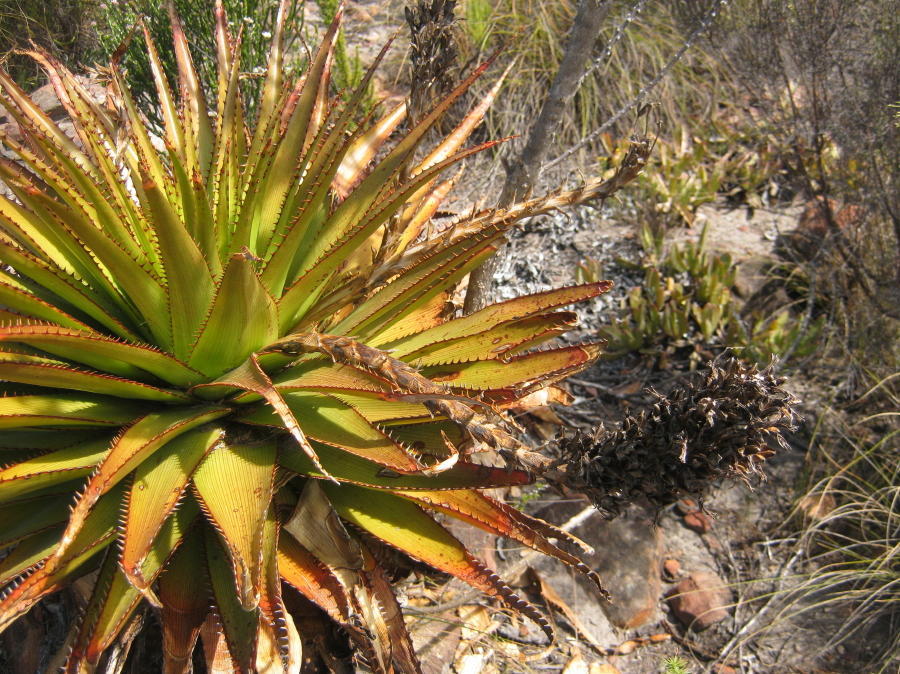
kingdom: Plantae
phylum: Tracheophyta
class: Liliopsida
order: Asparagales
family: Asphodelaceae
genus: Aloe
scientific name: Aloe lineata
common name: Lined red-spined aloe
